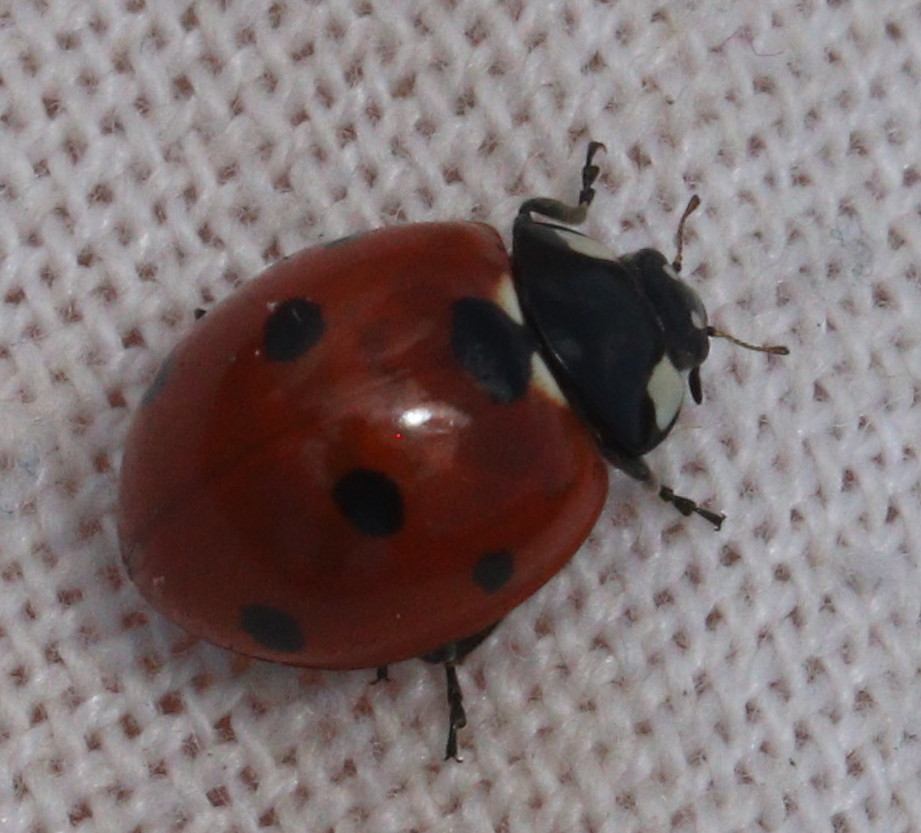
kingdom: Animalia
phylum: Arthropoda
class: Insecta
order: Coleoptera
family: Coccinellidae
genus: Coccinella
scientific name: Coccinella septempunctata
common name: Sevenspotted lady beetle
